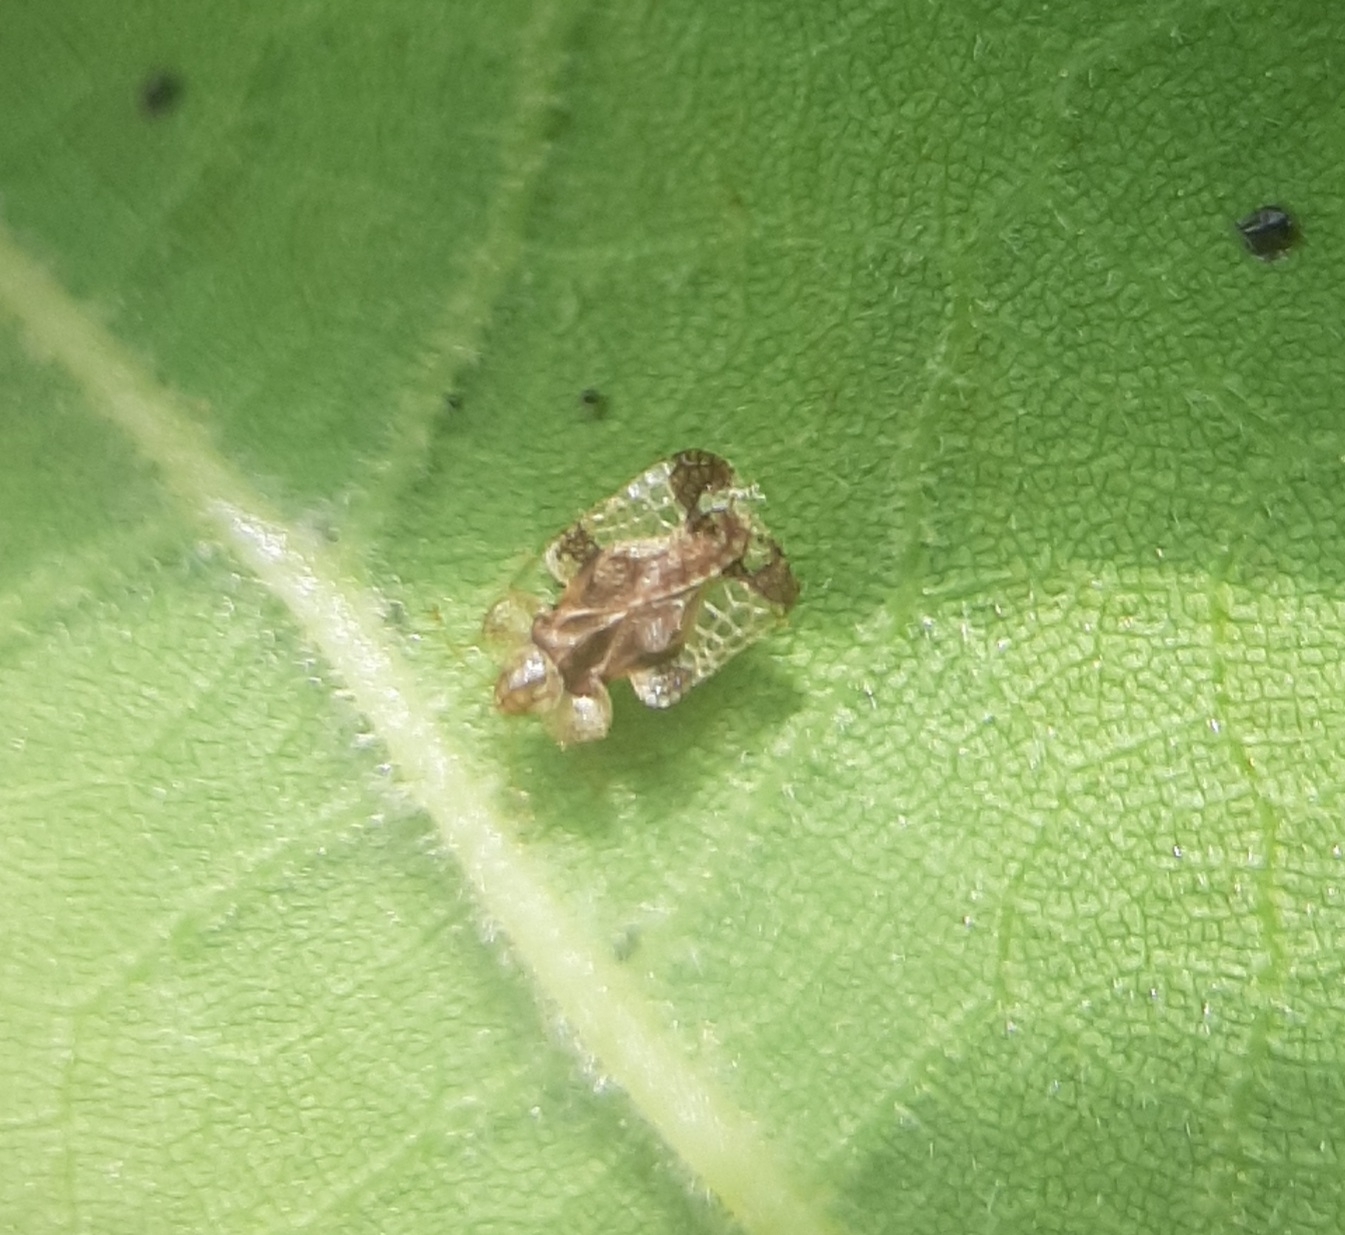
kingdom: Animalia
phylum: Arthropoda
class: Insecta
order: Hemiptera
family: Tingidae
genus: Corythucha
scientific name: Corythucha juglandis
